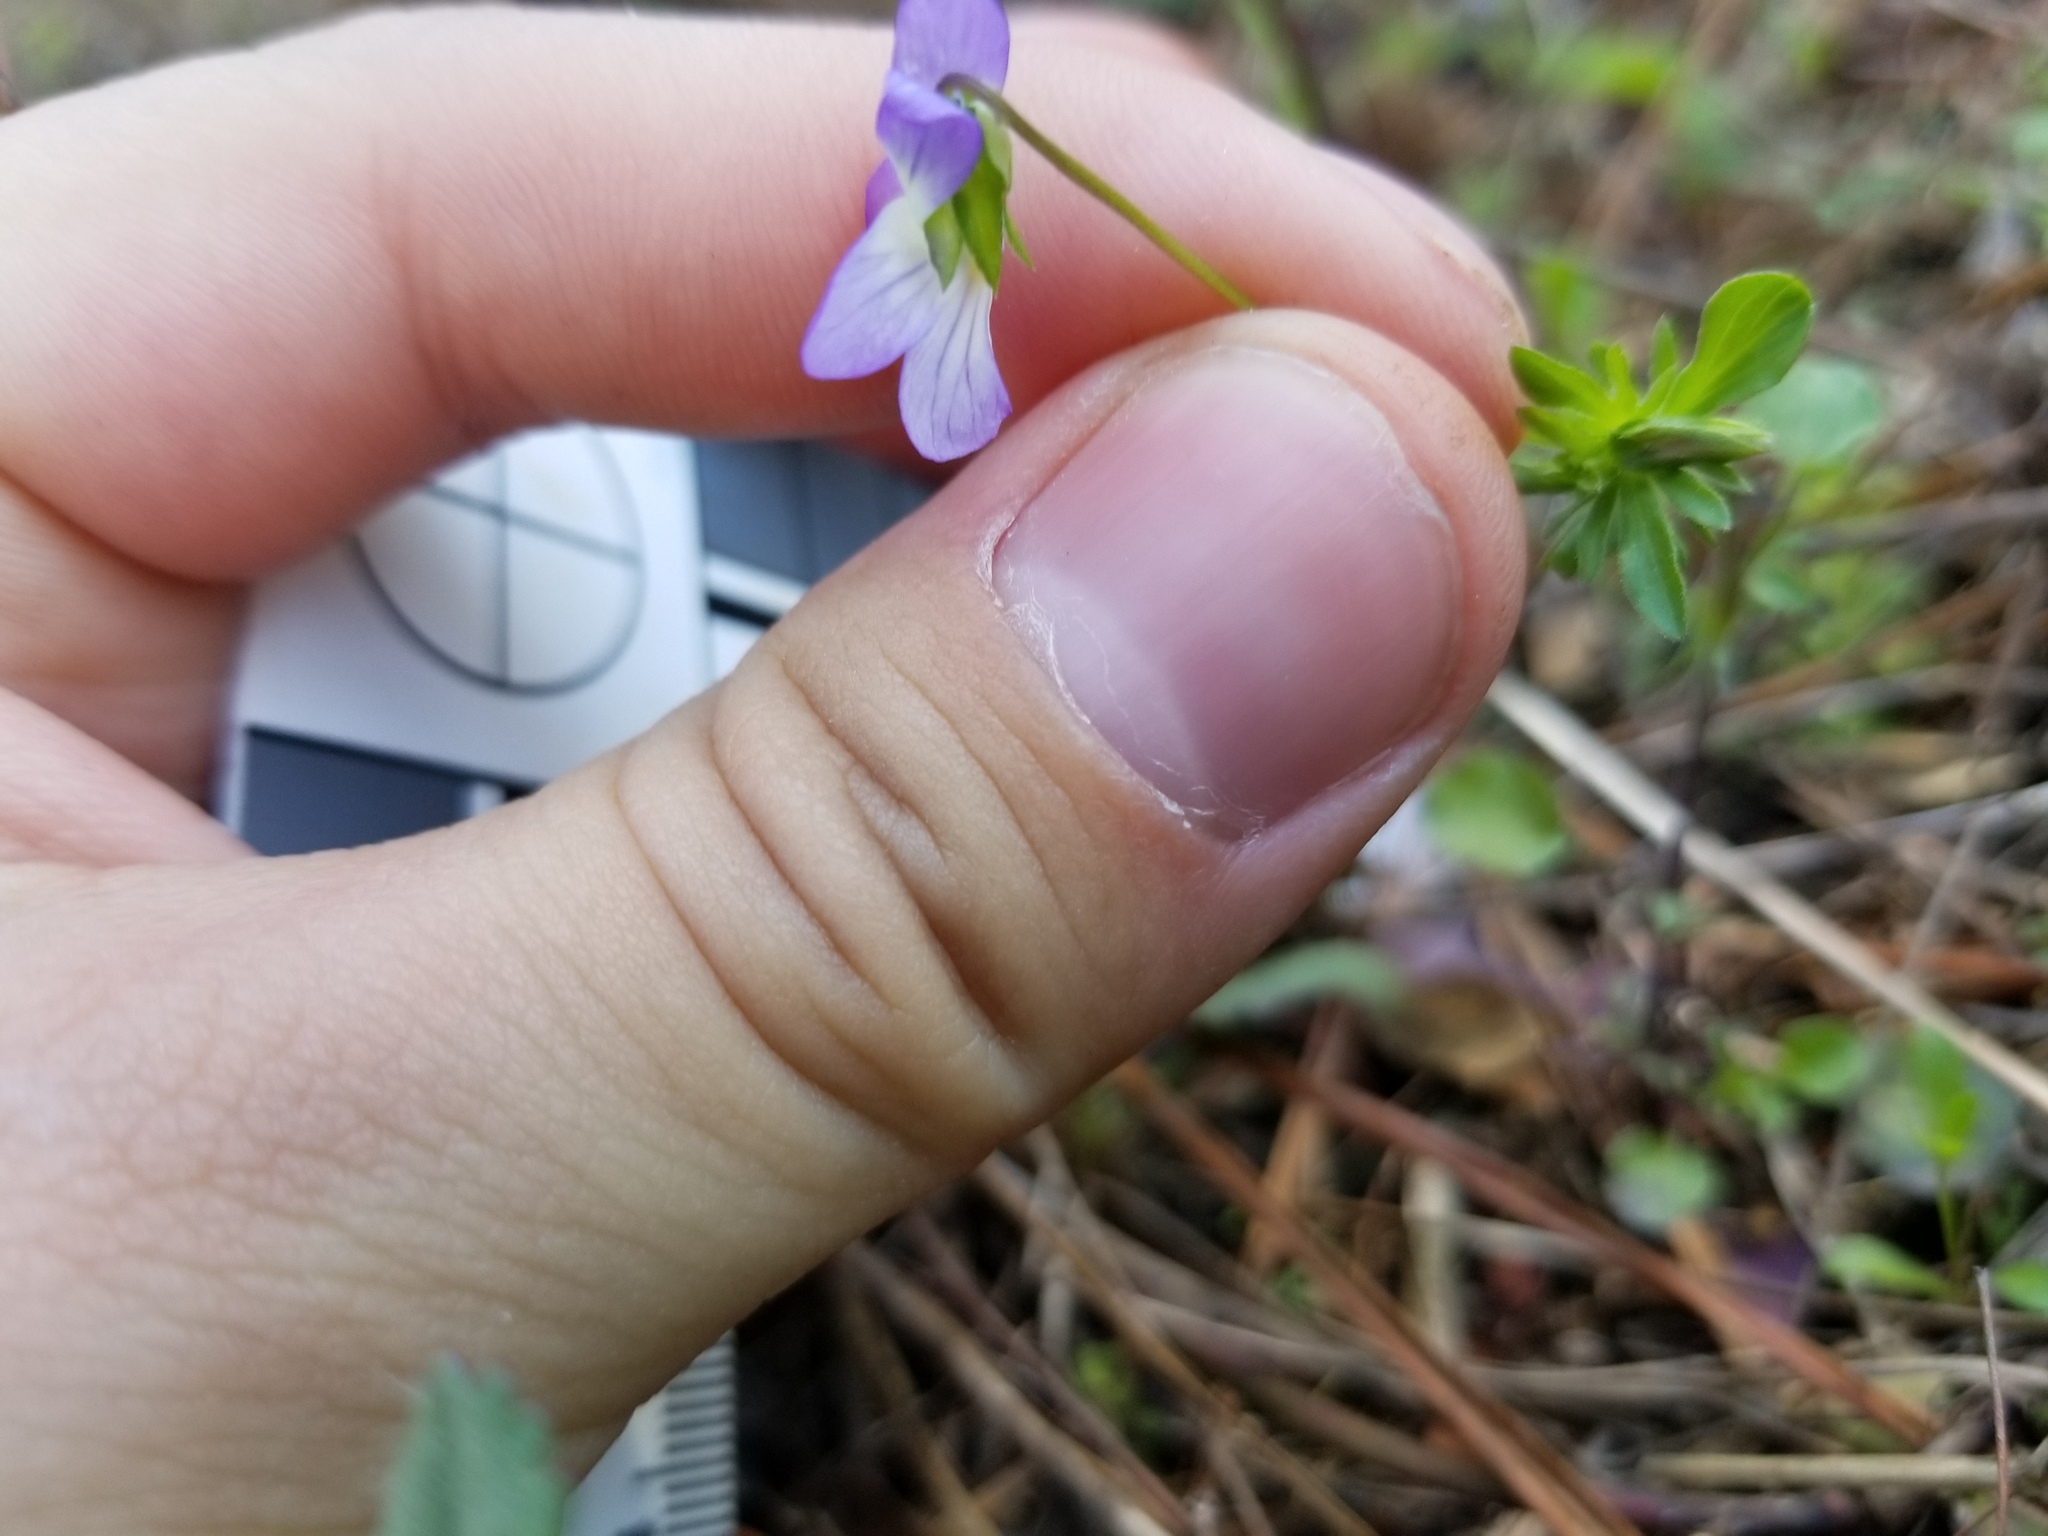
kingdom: Plantae
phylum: Tracheophyta
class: Magnoliopsida
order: Malpighiales
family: Violaceae
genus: Viola
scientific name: Viola rafinesquei
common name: American field pansy
